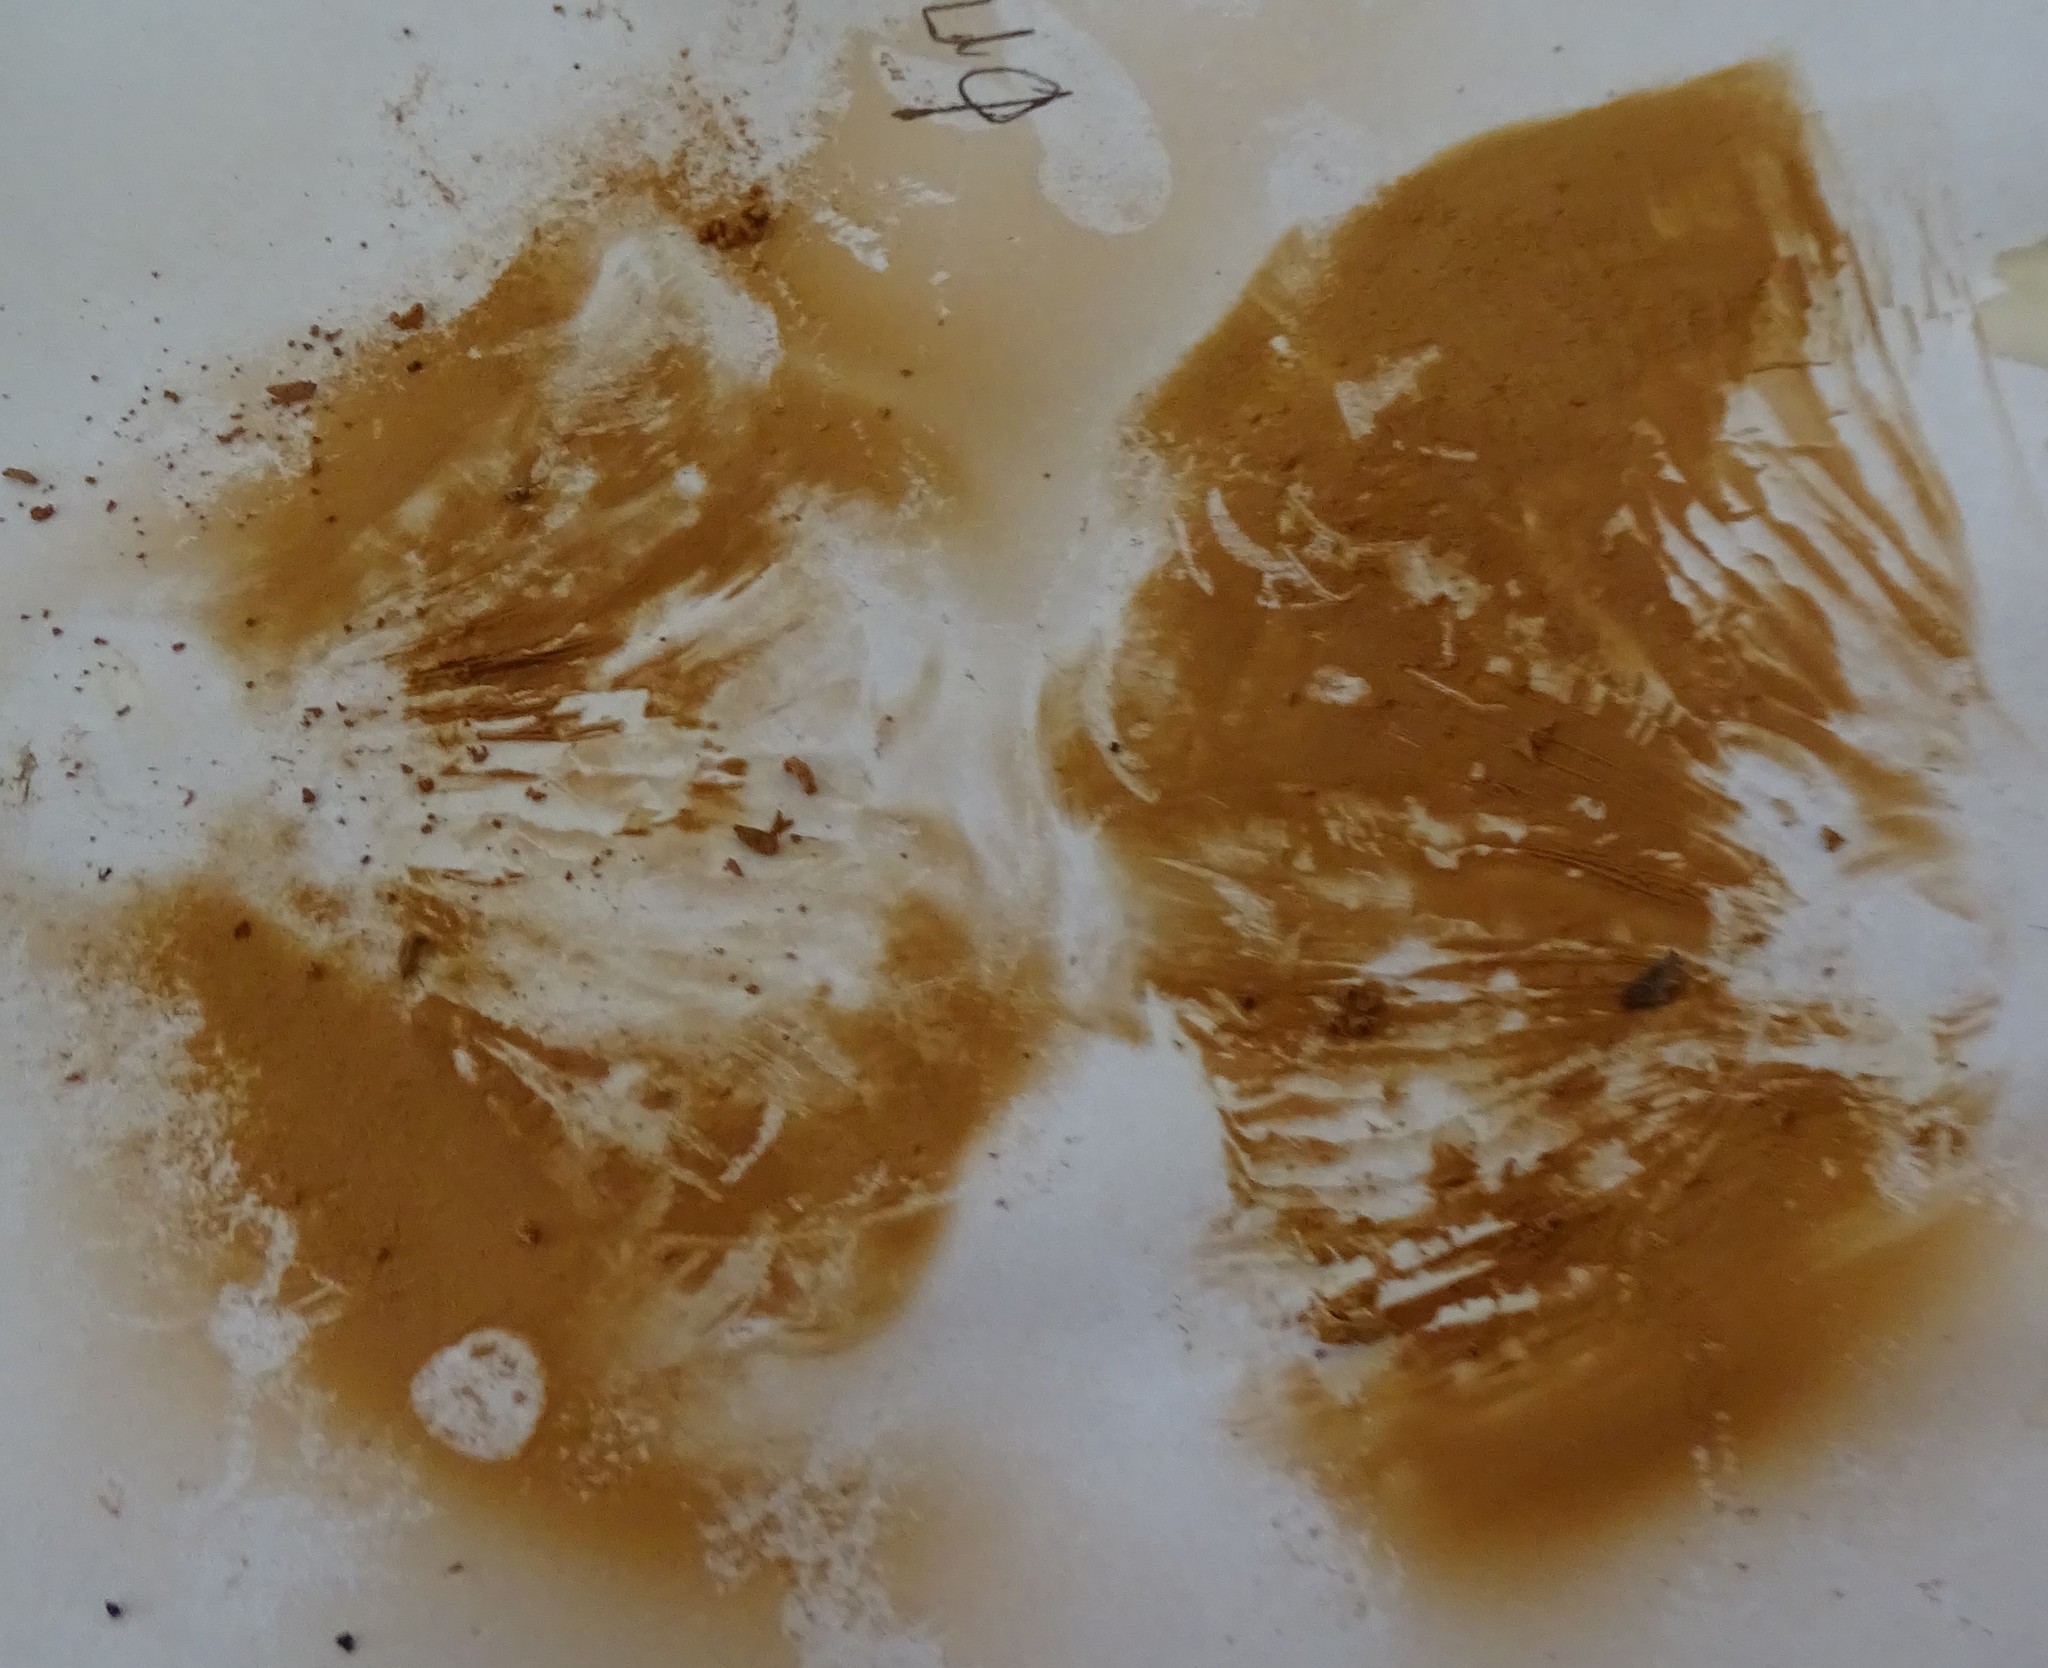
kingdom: Fungi
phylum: Basidiomycota
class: Agaricomycetes
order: Agaricales
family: Entolomataceae
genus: Entoloma
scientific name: Entoloma abortivum
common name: Aborted entoloma
